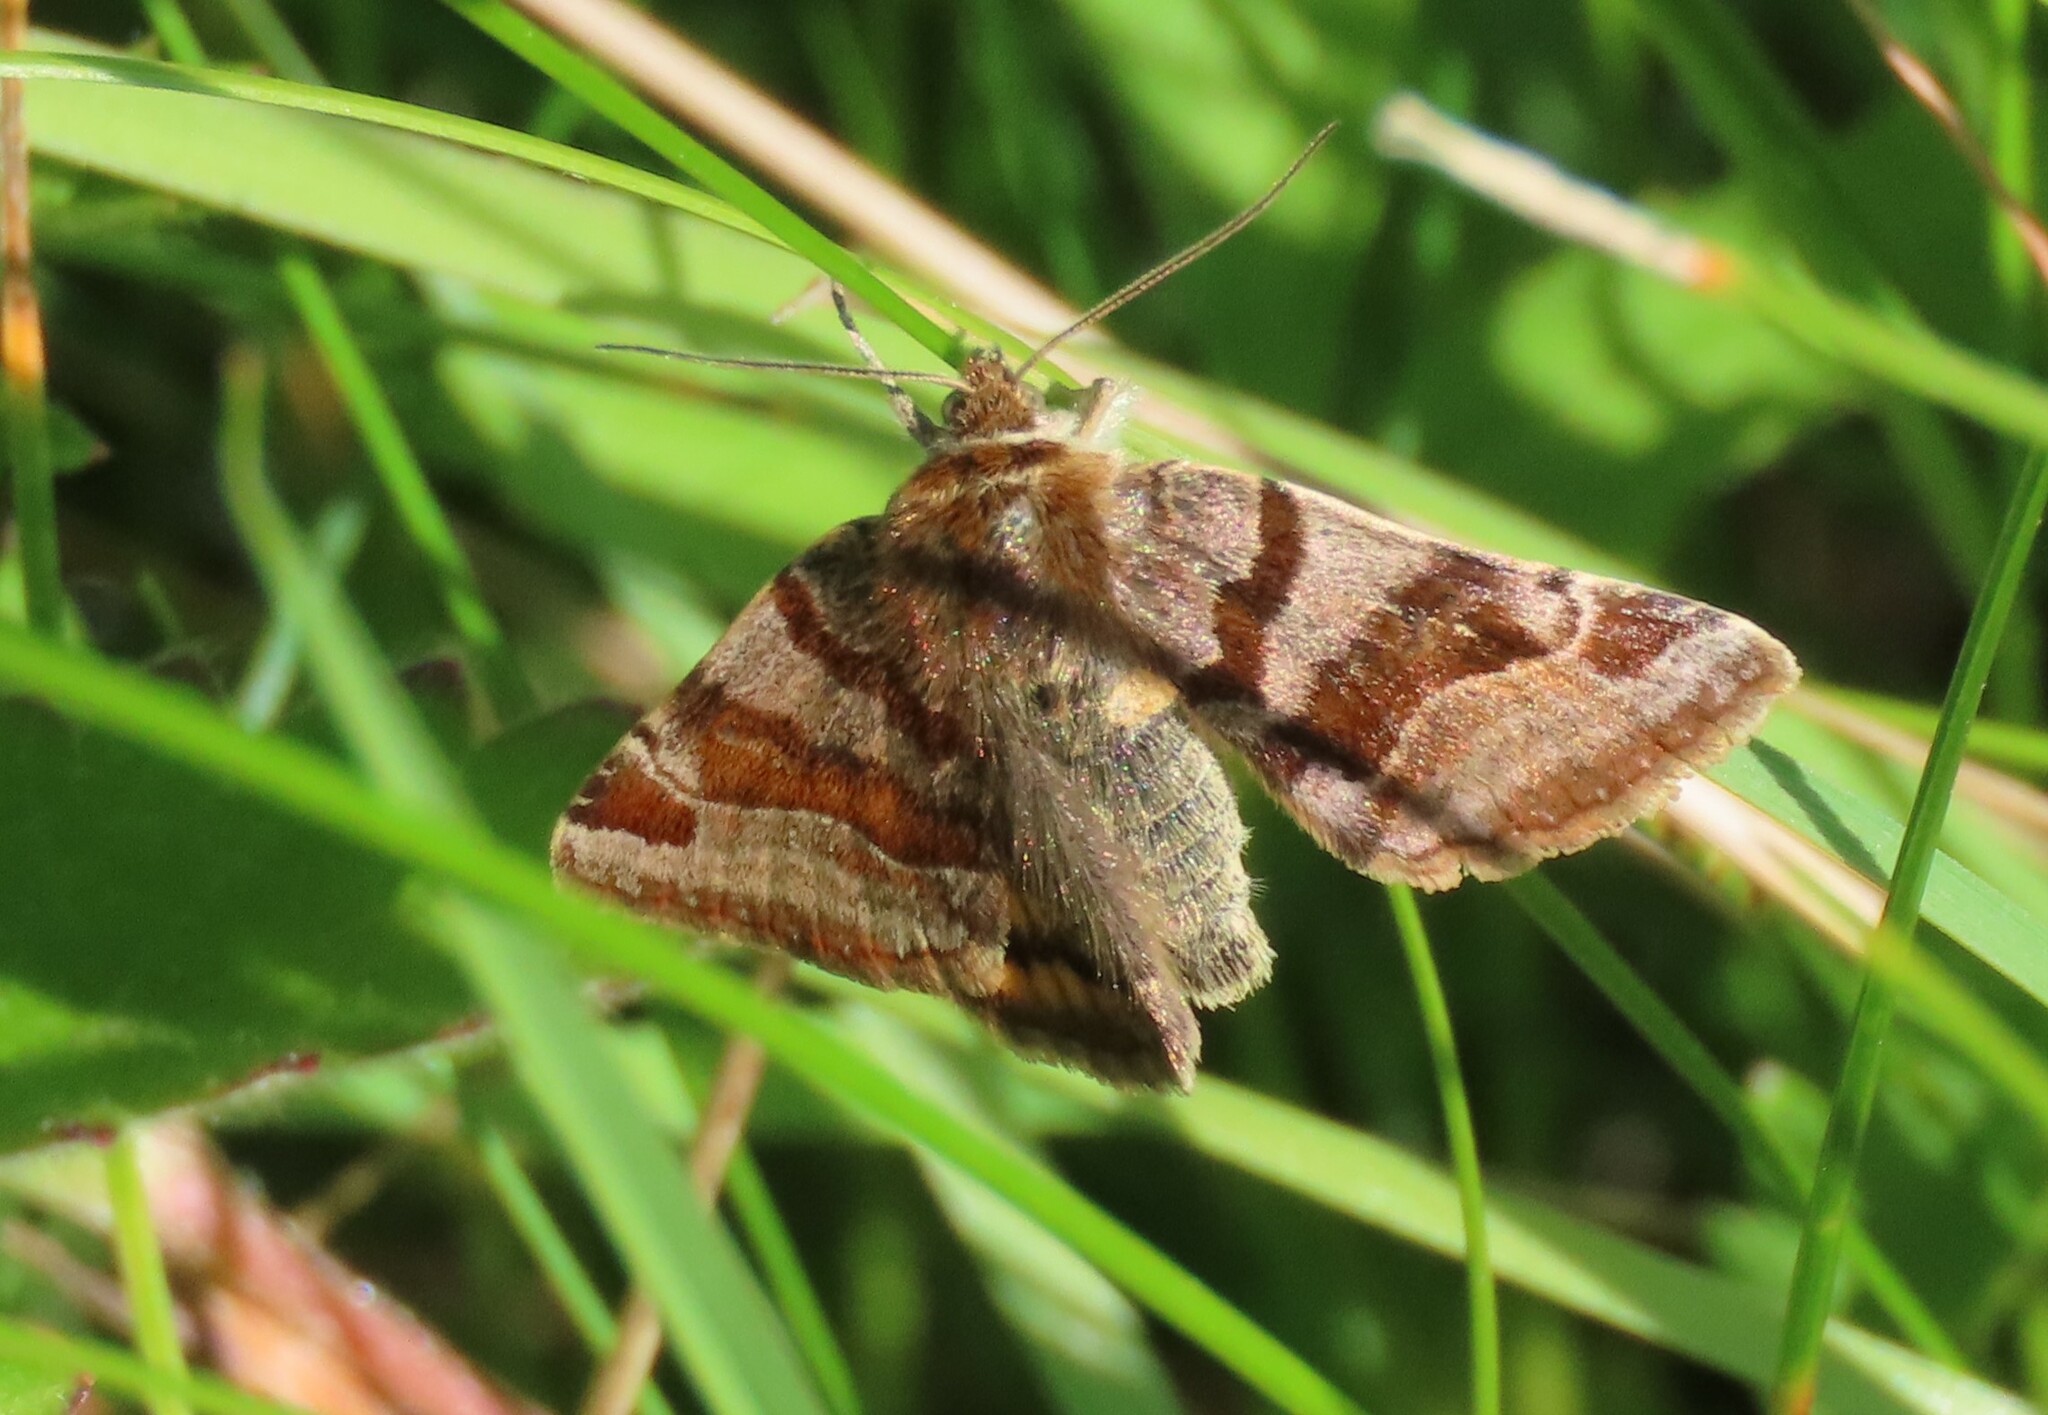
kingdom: Animalia
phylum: Arthropoda
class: Insecta
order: Lepidoptera
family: Erebidae
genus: Euclidia
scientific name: Euclidia glyphica
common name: Burnet companion
